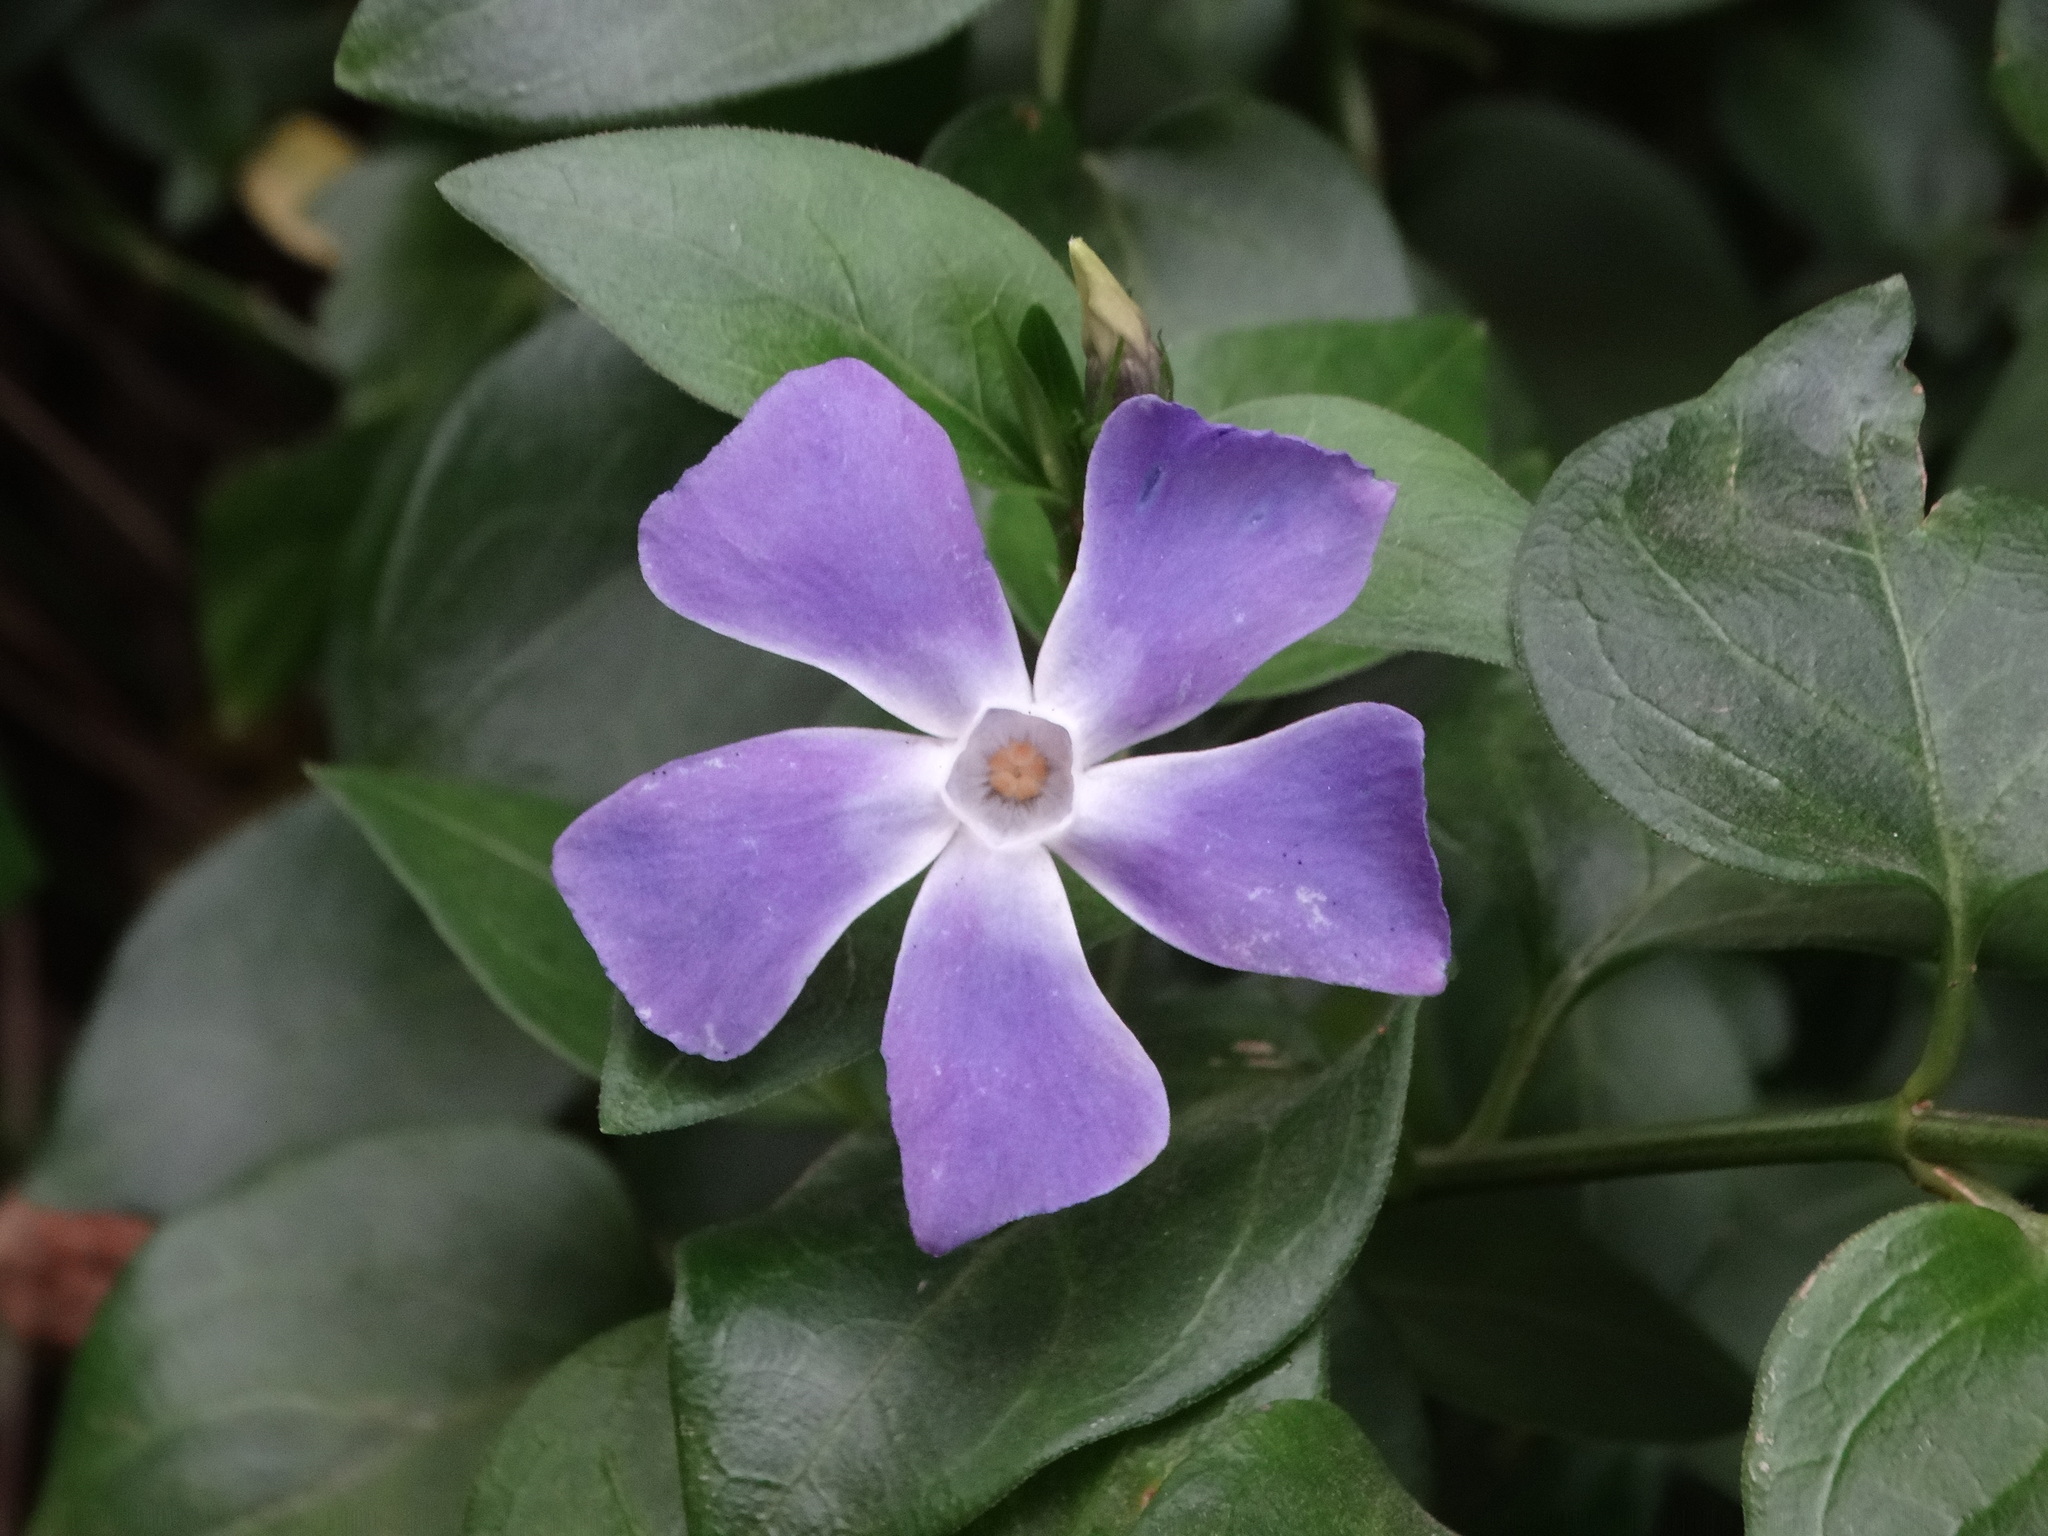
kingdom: Plantae
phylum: Tracheophyta
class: Magnoliopsida
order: Gentianales
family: Apocynaceae
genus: Vinca
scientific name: Vinca major
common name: Greater periwinkle
